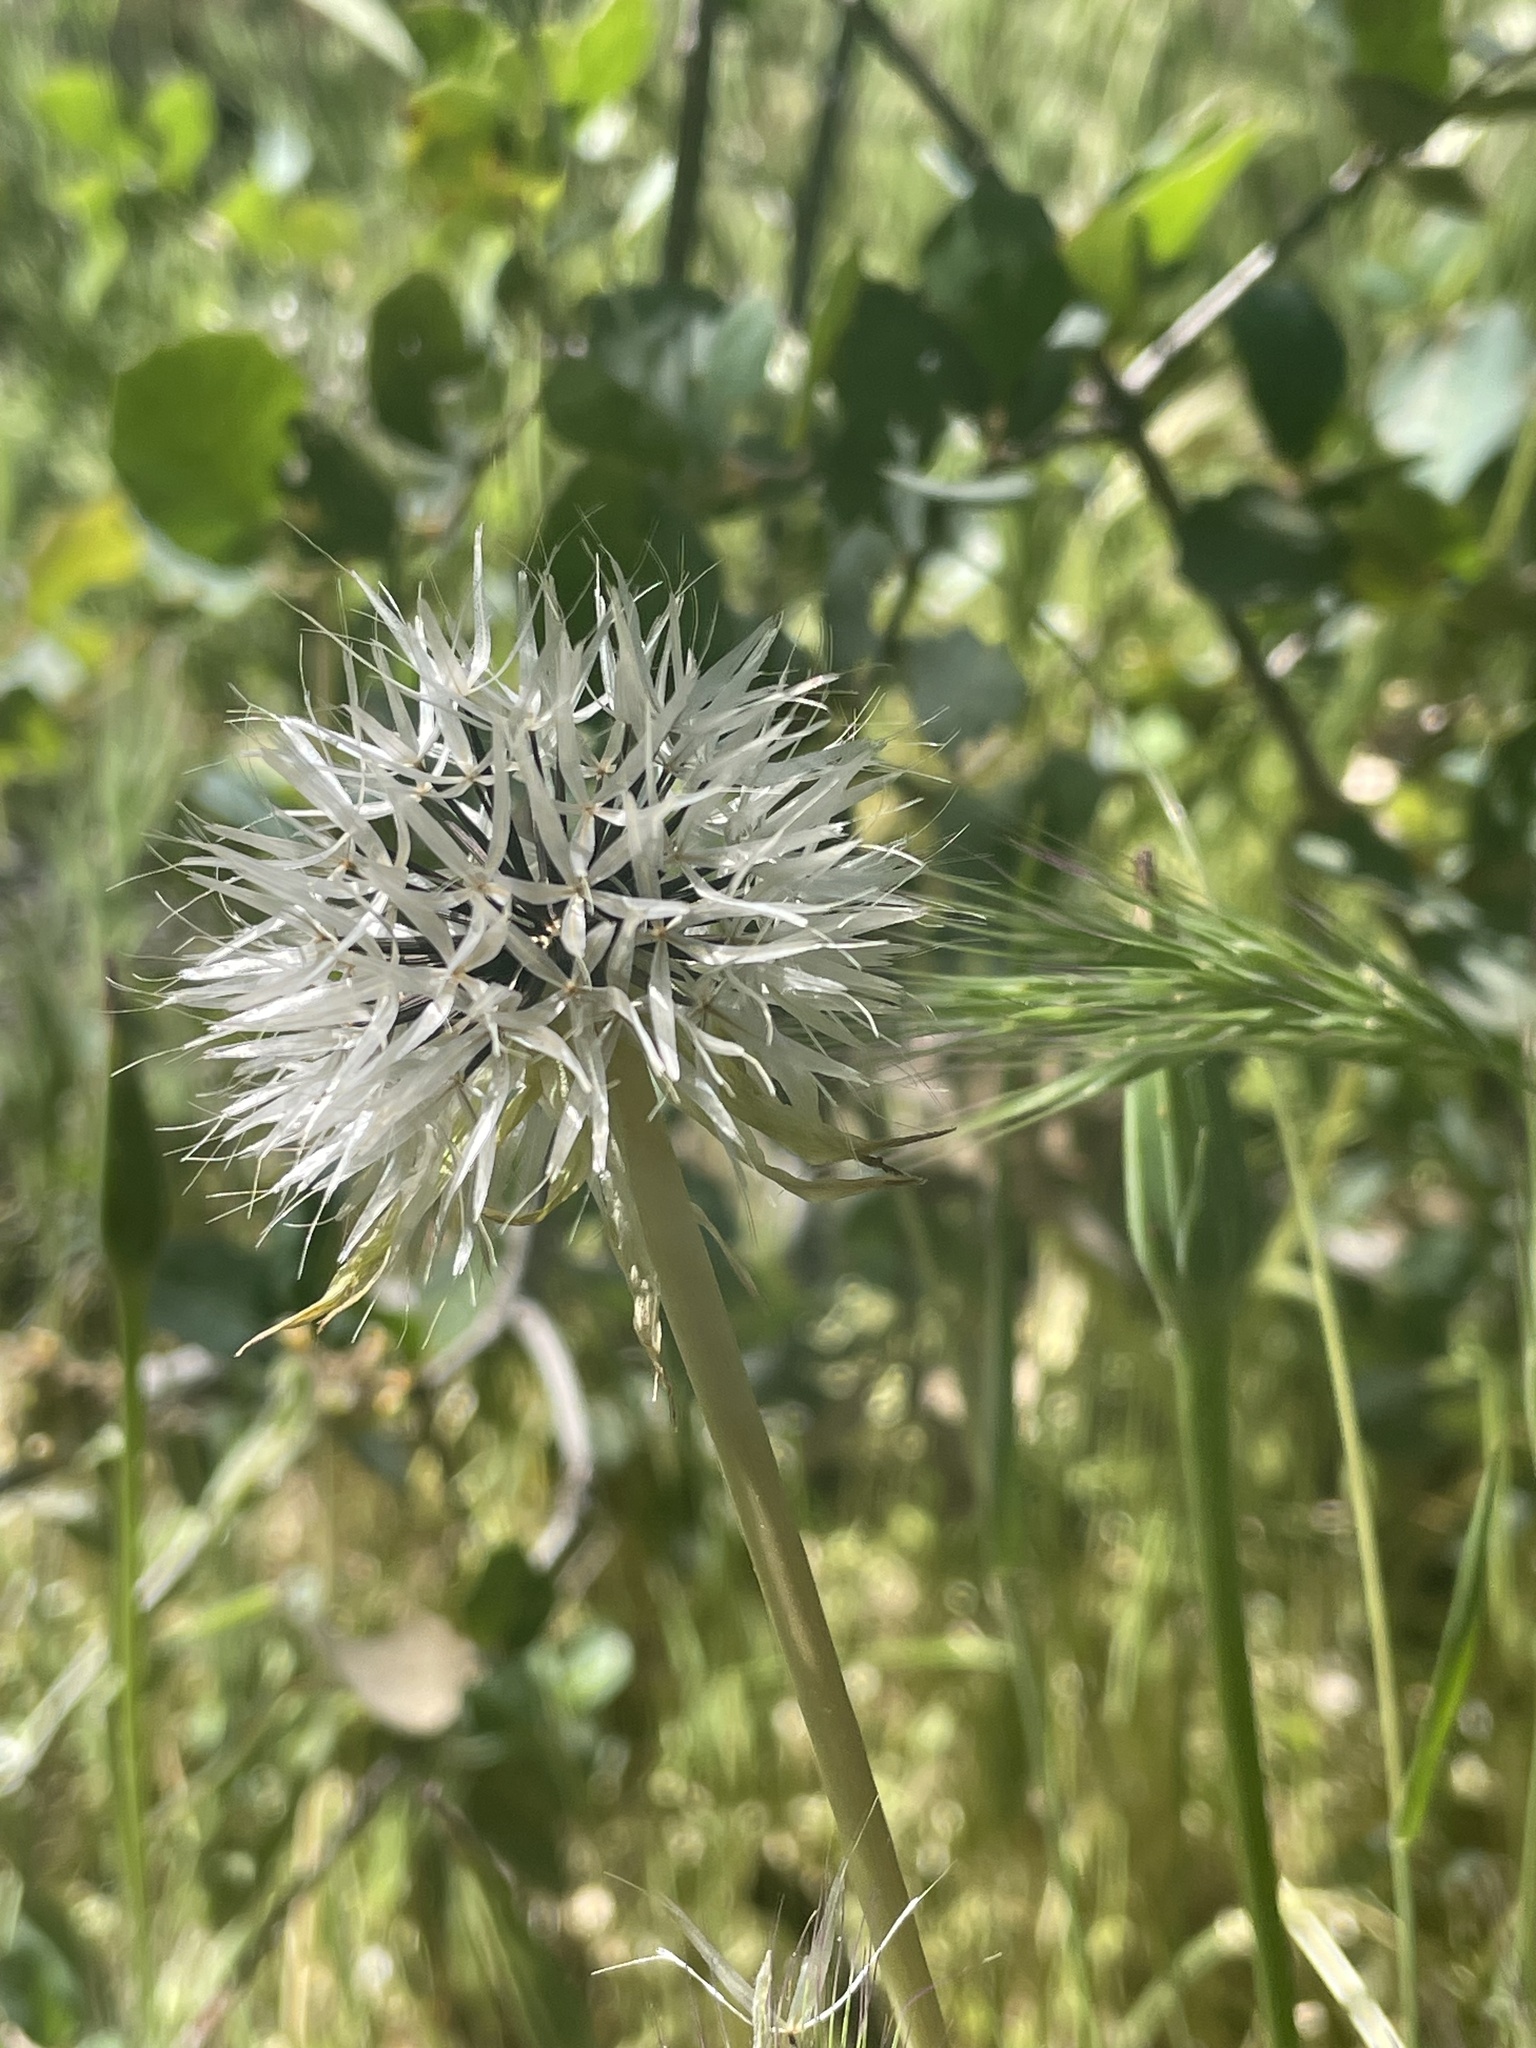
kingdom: Plantae
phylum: Tracheophyta
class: Magnoliopsida
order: Asterales
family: Asteraceae
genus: Microseris
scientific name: Microseris lindleyi
